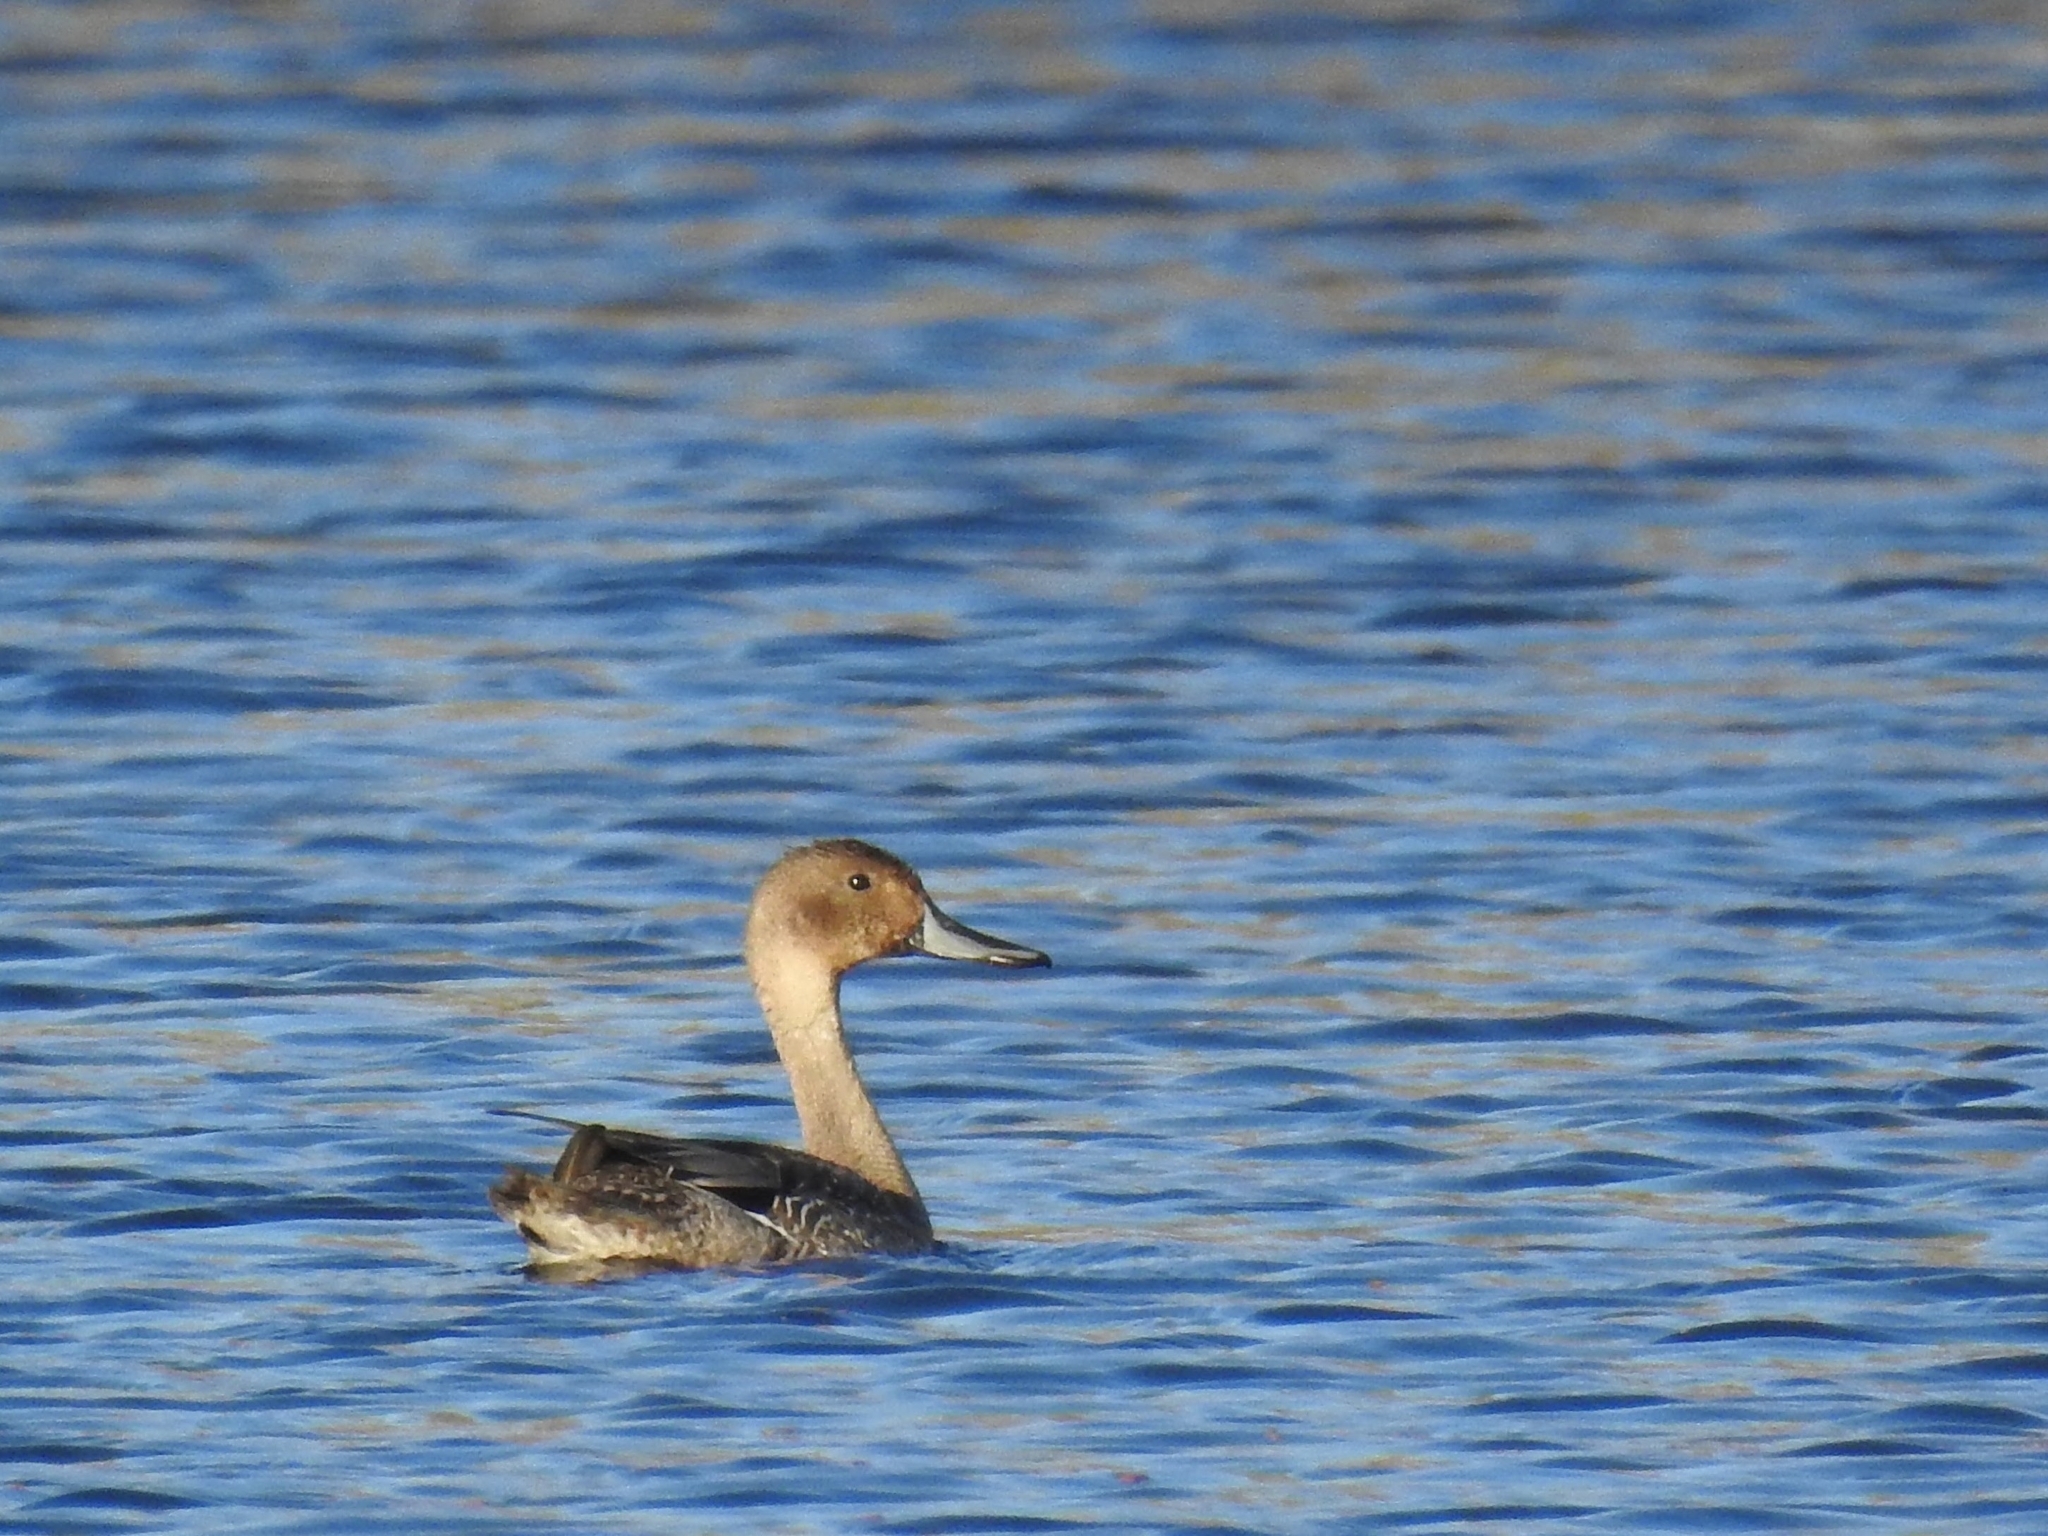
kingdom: Animalia
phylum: Chordata
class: Aves
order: Anseriformes
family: Anatidae
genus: Anas
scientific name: Anas acuta
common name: Northern pintail
